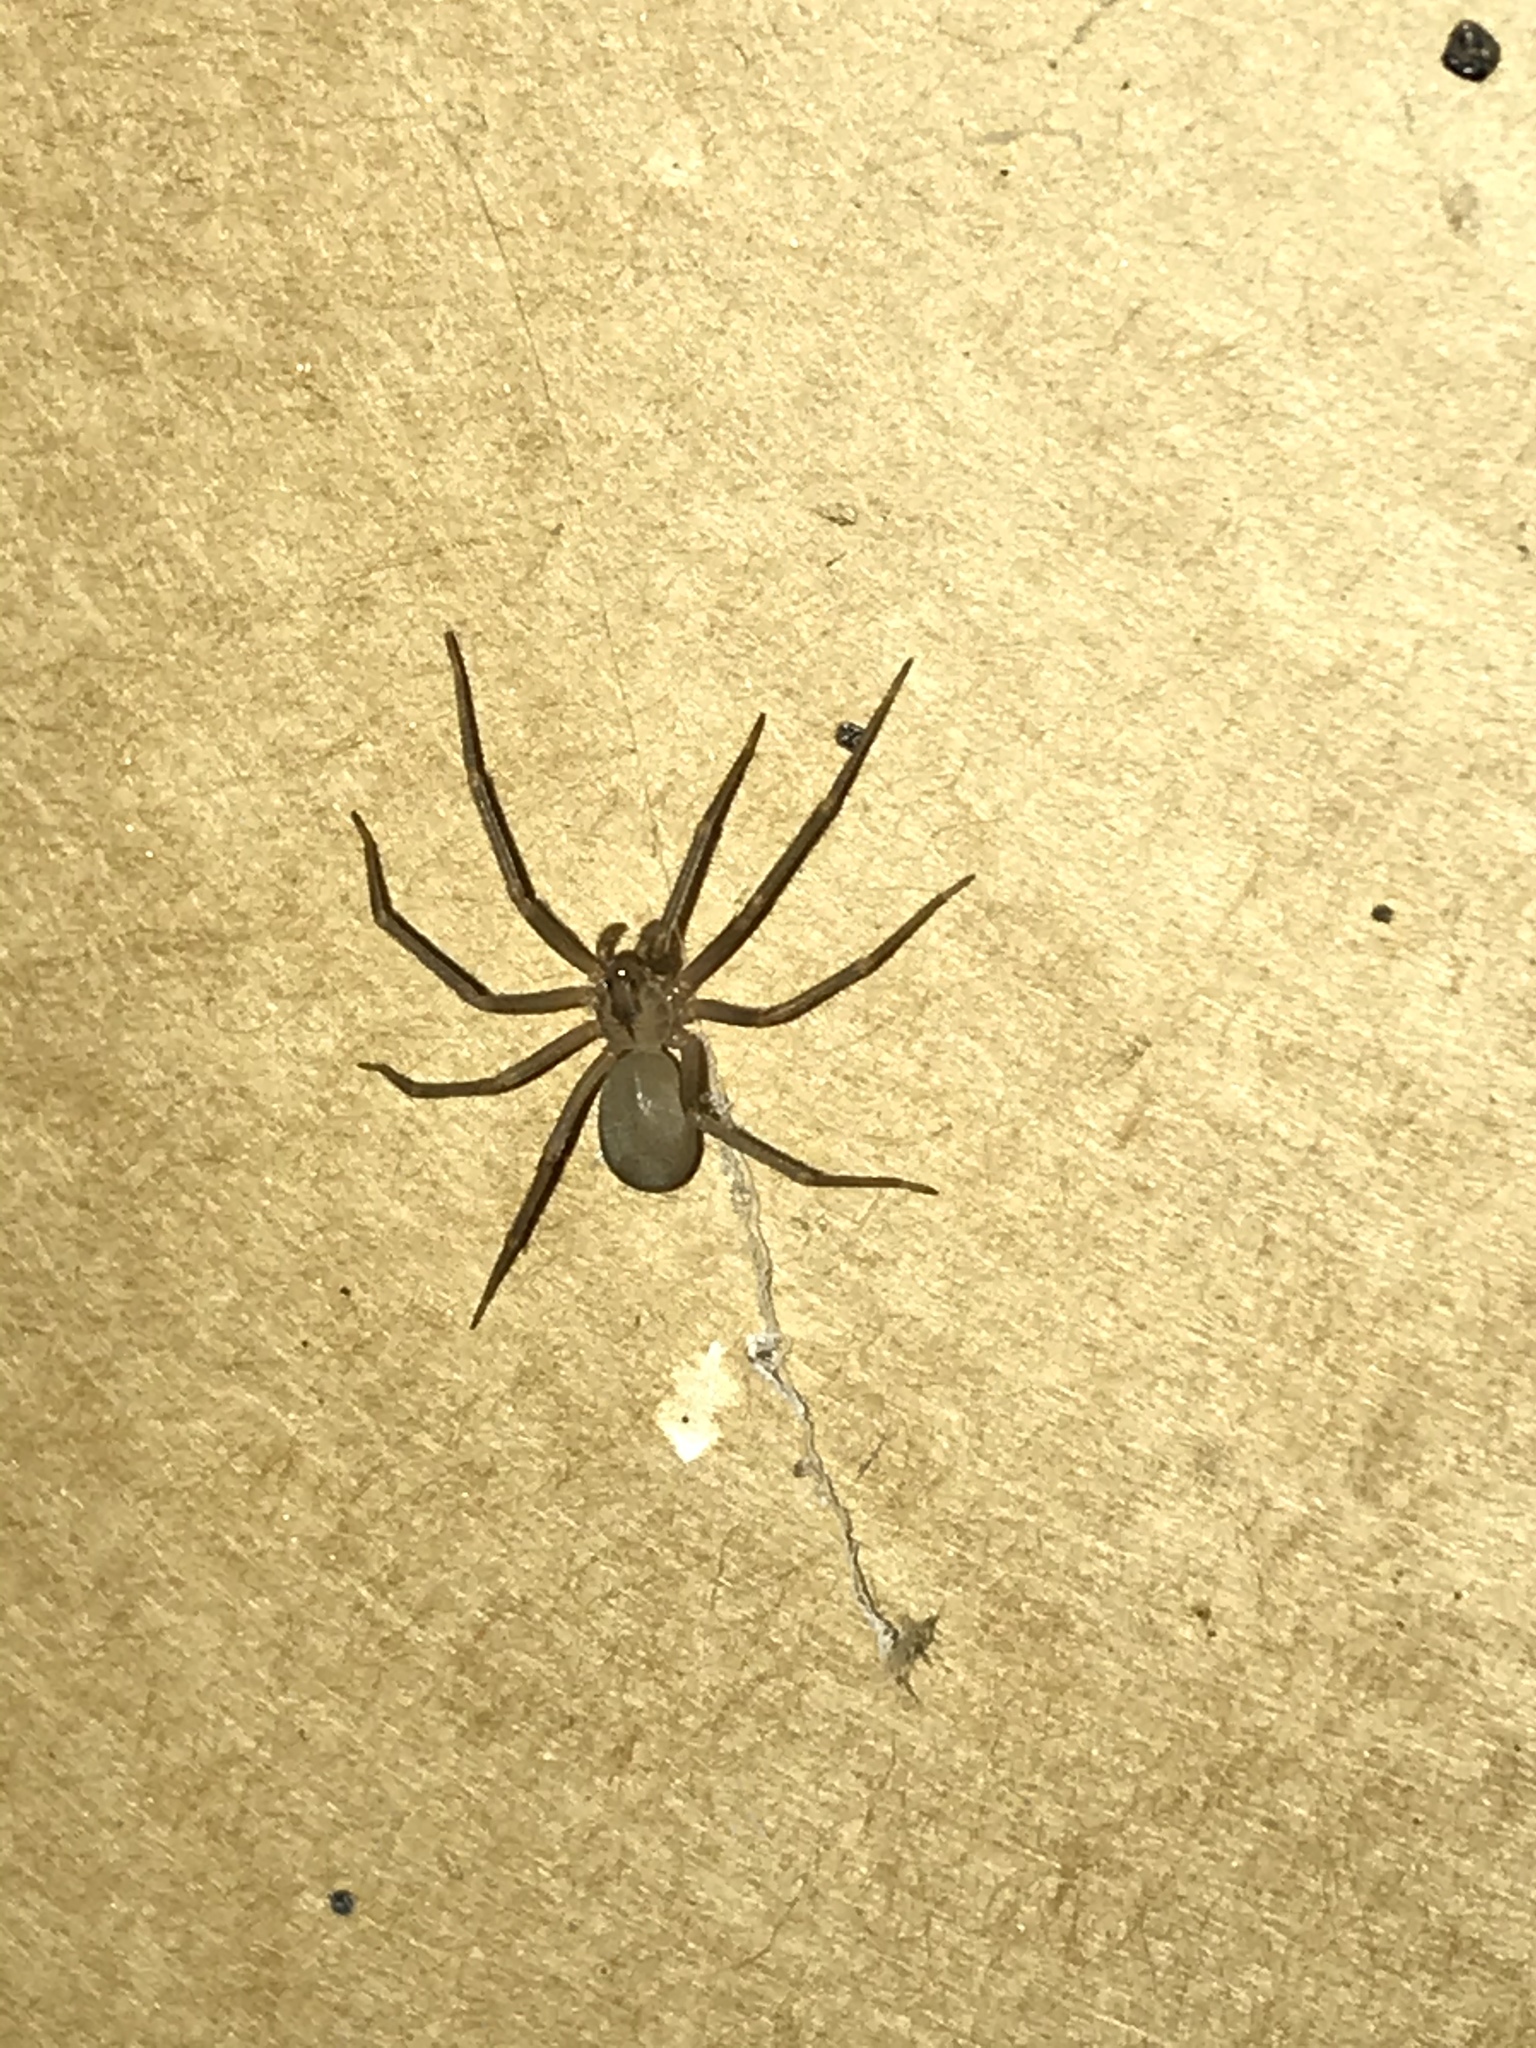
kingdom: Animalia
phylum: Arthropoda
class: Arachnida
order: Araneae
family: Sicariidae
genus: Loxosceles
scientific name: Loxosceles reclusa
